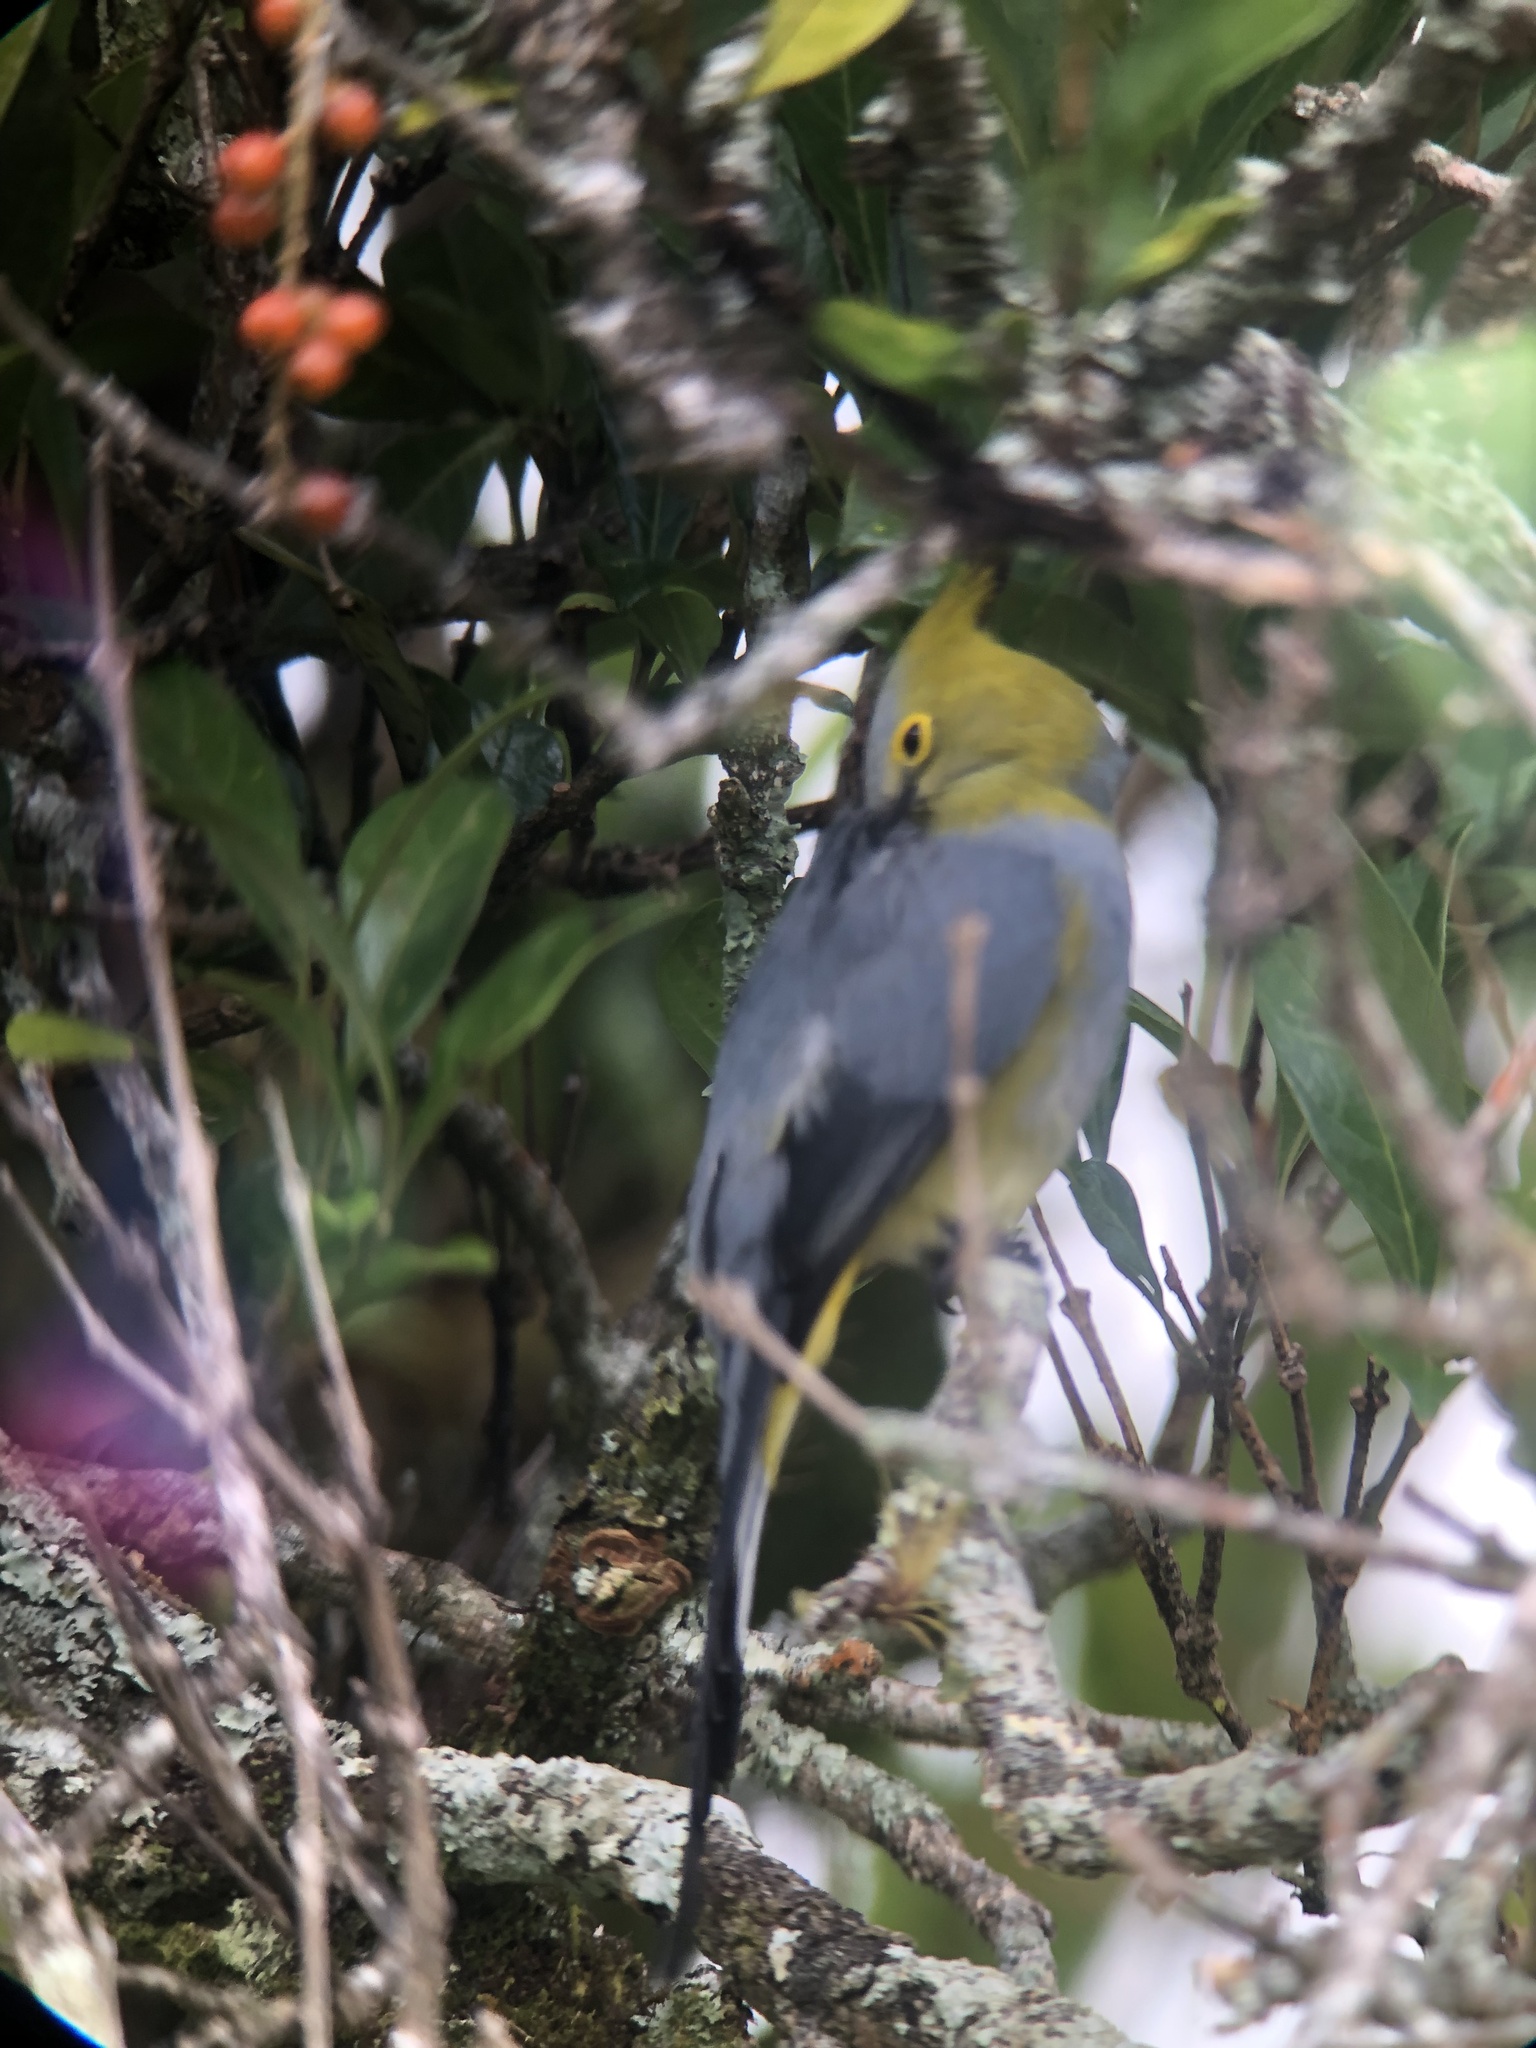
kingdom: Animalia
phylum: Chordata
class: Aves
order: Passeriformes
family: Ptilogonatidae
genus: Ptilogonys
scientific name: Ptilogonys caudatus
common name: Long-tailed silky-flycatcher
